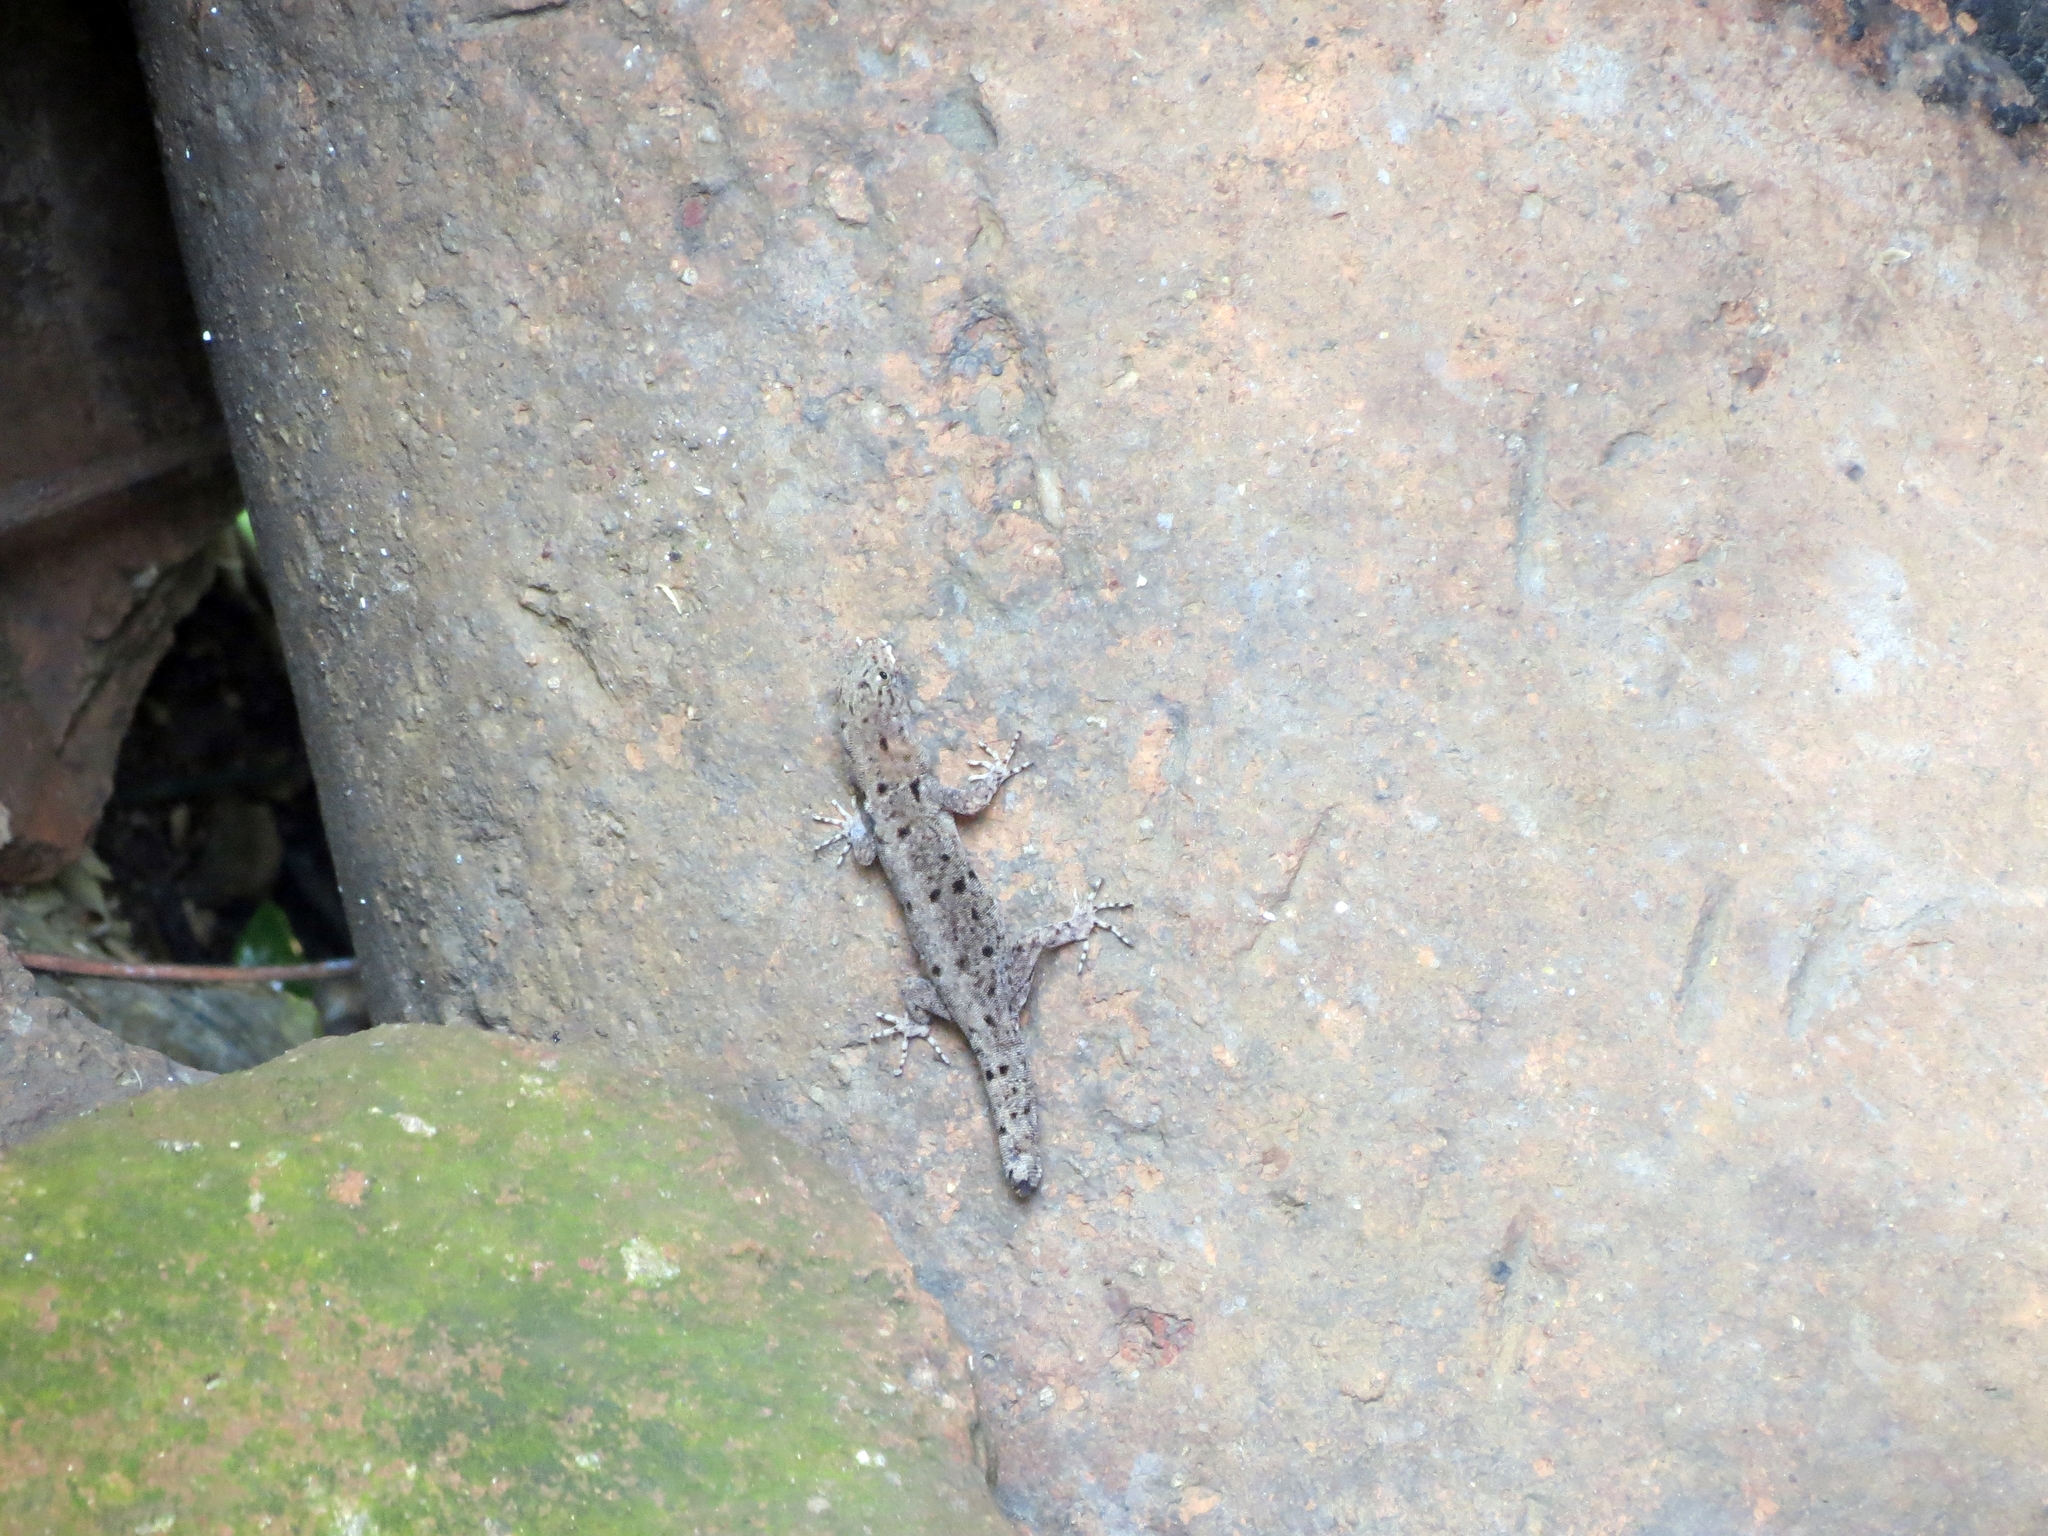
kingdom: Animalia
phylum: Chordata
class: Squamata
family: Sphaerodactylidae
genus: Gonatodes
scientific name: Gonatodes albogularis
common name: Yellow-headed gecko
